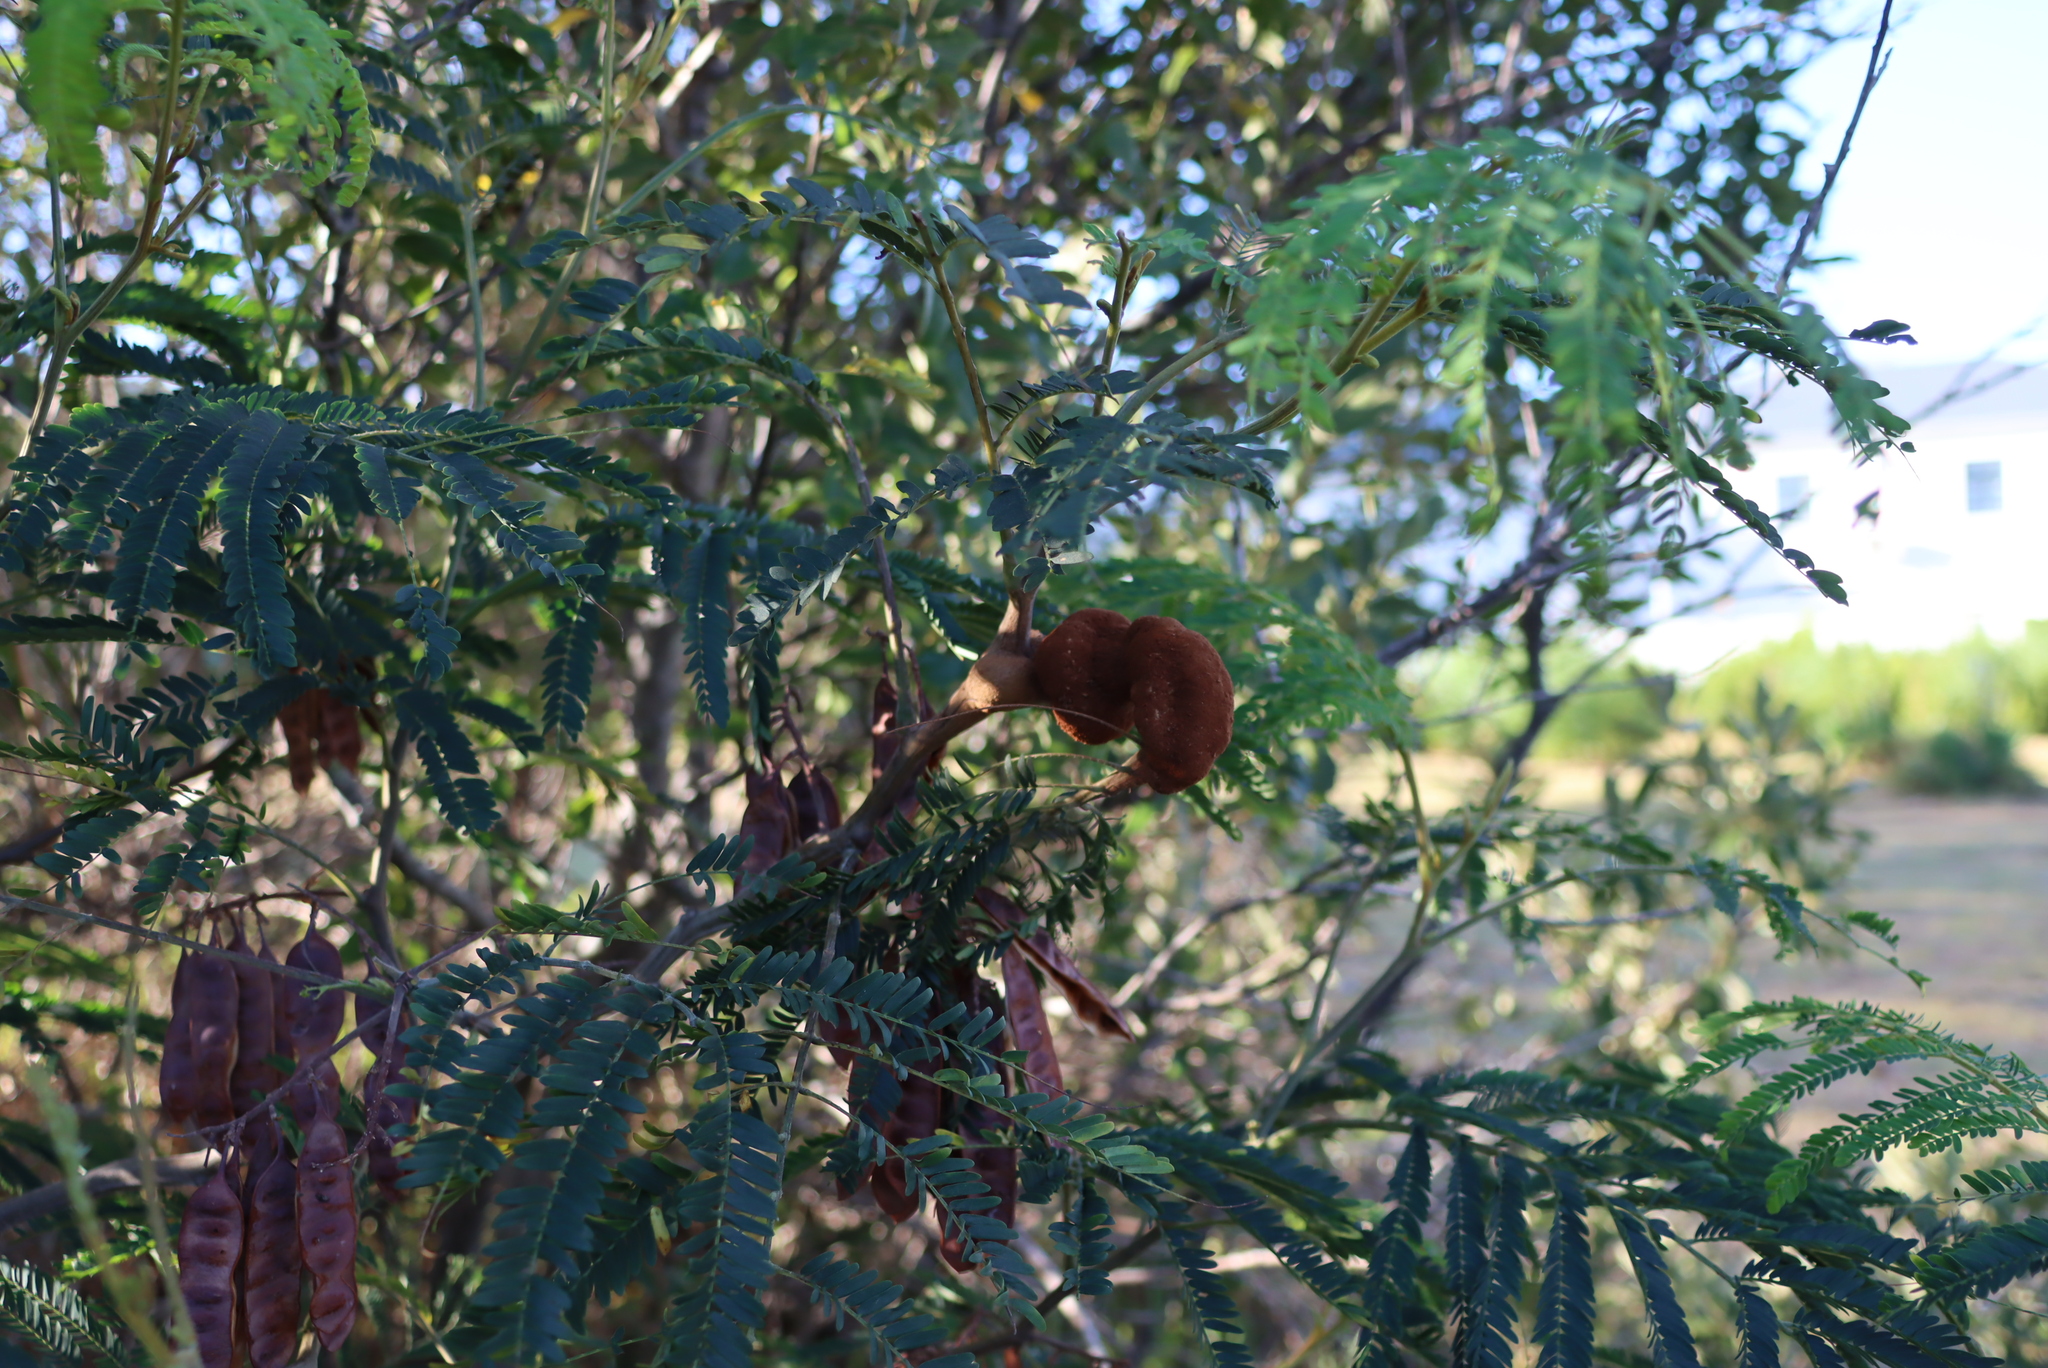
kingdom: Fungi
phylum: Basidiomycota
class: Pucciniomycetes
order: Pucciniales
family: Uromycladiaceae
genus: Uromycladium
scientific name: Uromycladium woodii
